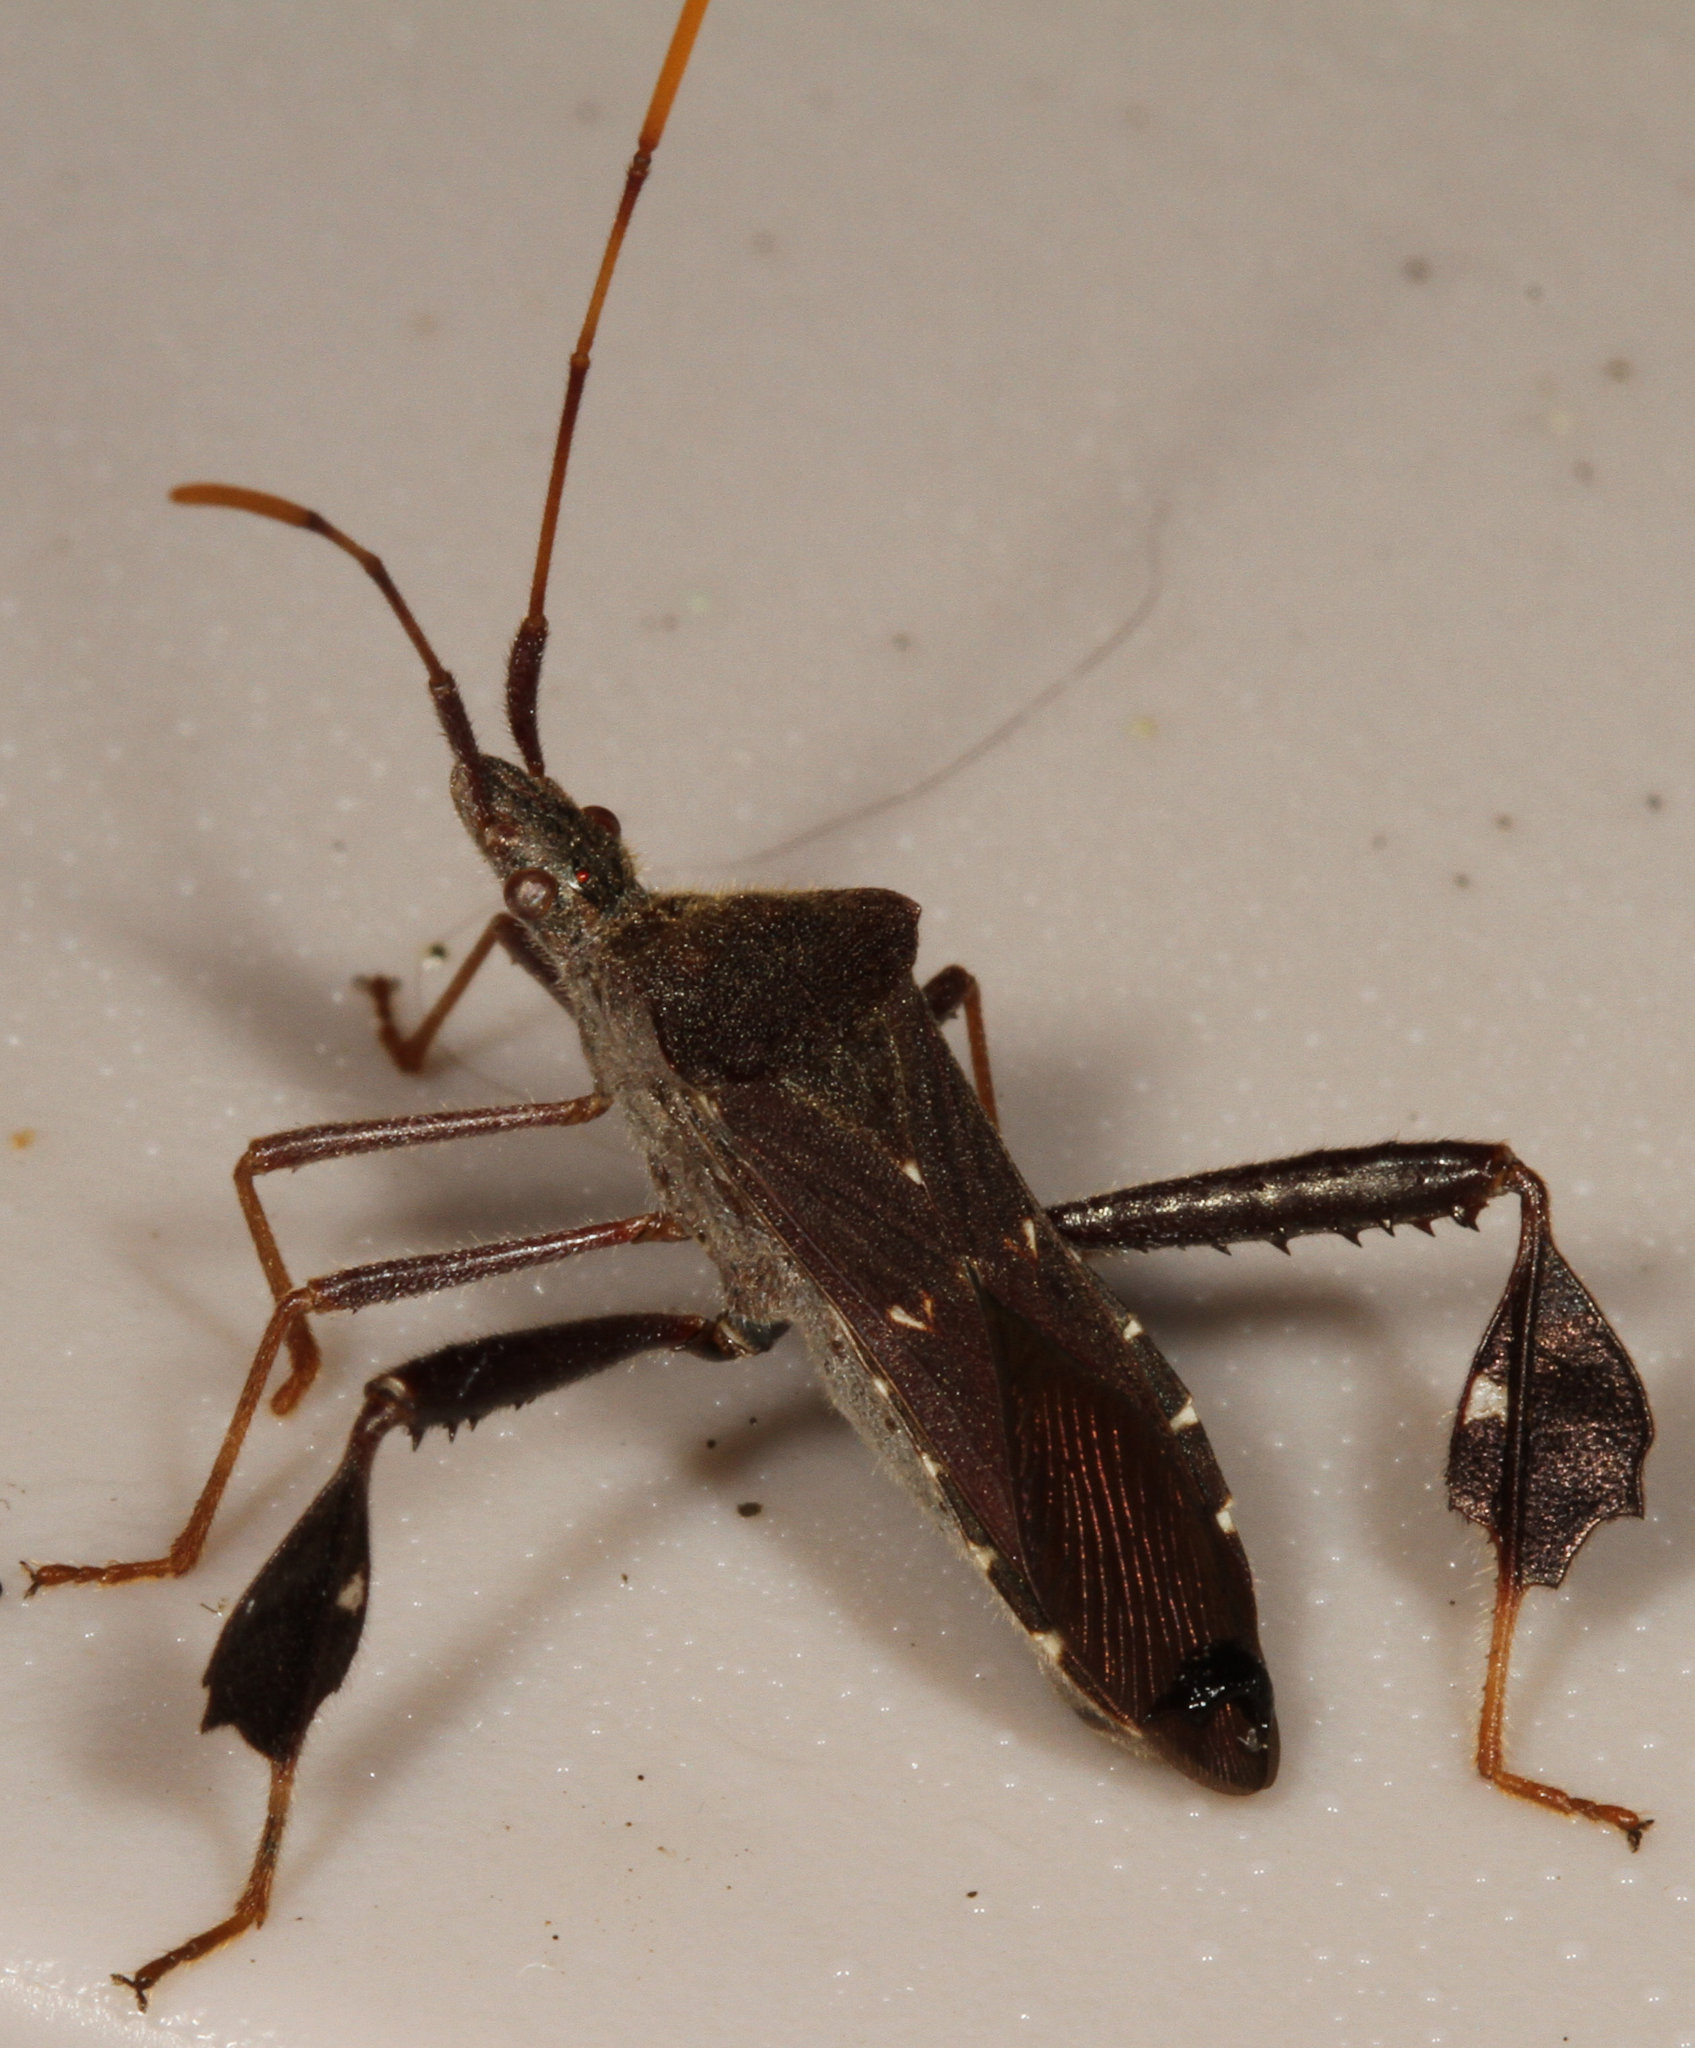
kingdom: Animalia
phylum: Arthropoda
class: Insecta
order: Hemiptera
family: Coreidae
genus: Leptoglossus
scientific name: Leptoglossus oppositus
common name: Northern leaf-footed bug
